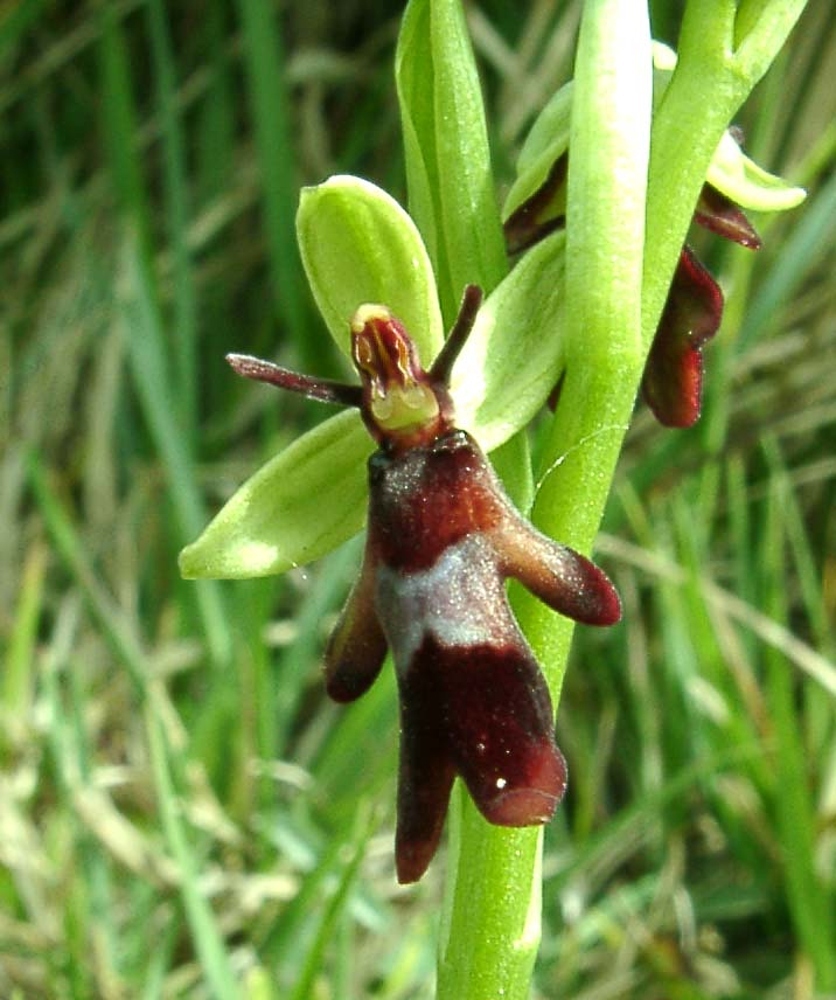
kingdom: Plantae
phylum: Tracheophyta
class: Liliopsida
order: Asparagales
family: Orchidaceae
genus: Ophrys
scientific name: Ophrys insectifera
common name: Fly orchid
